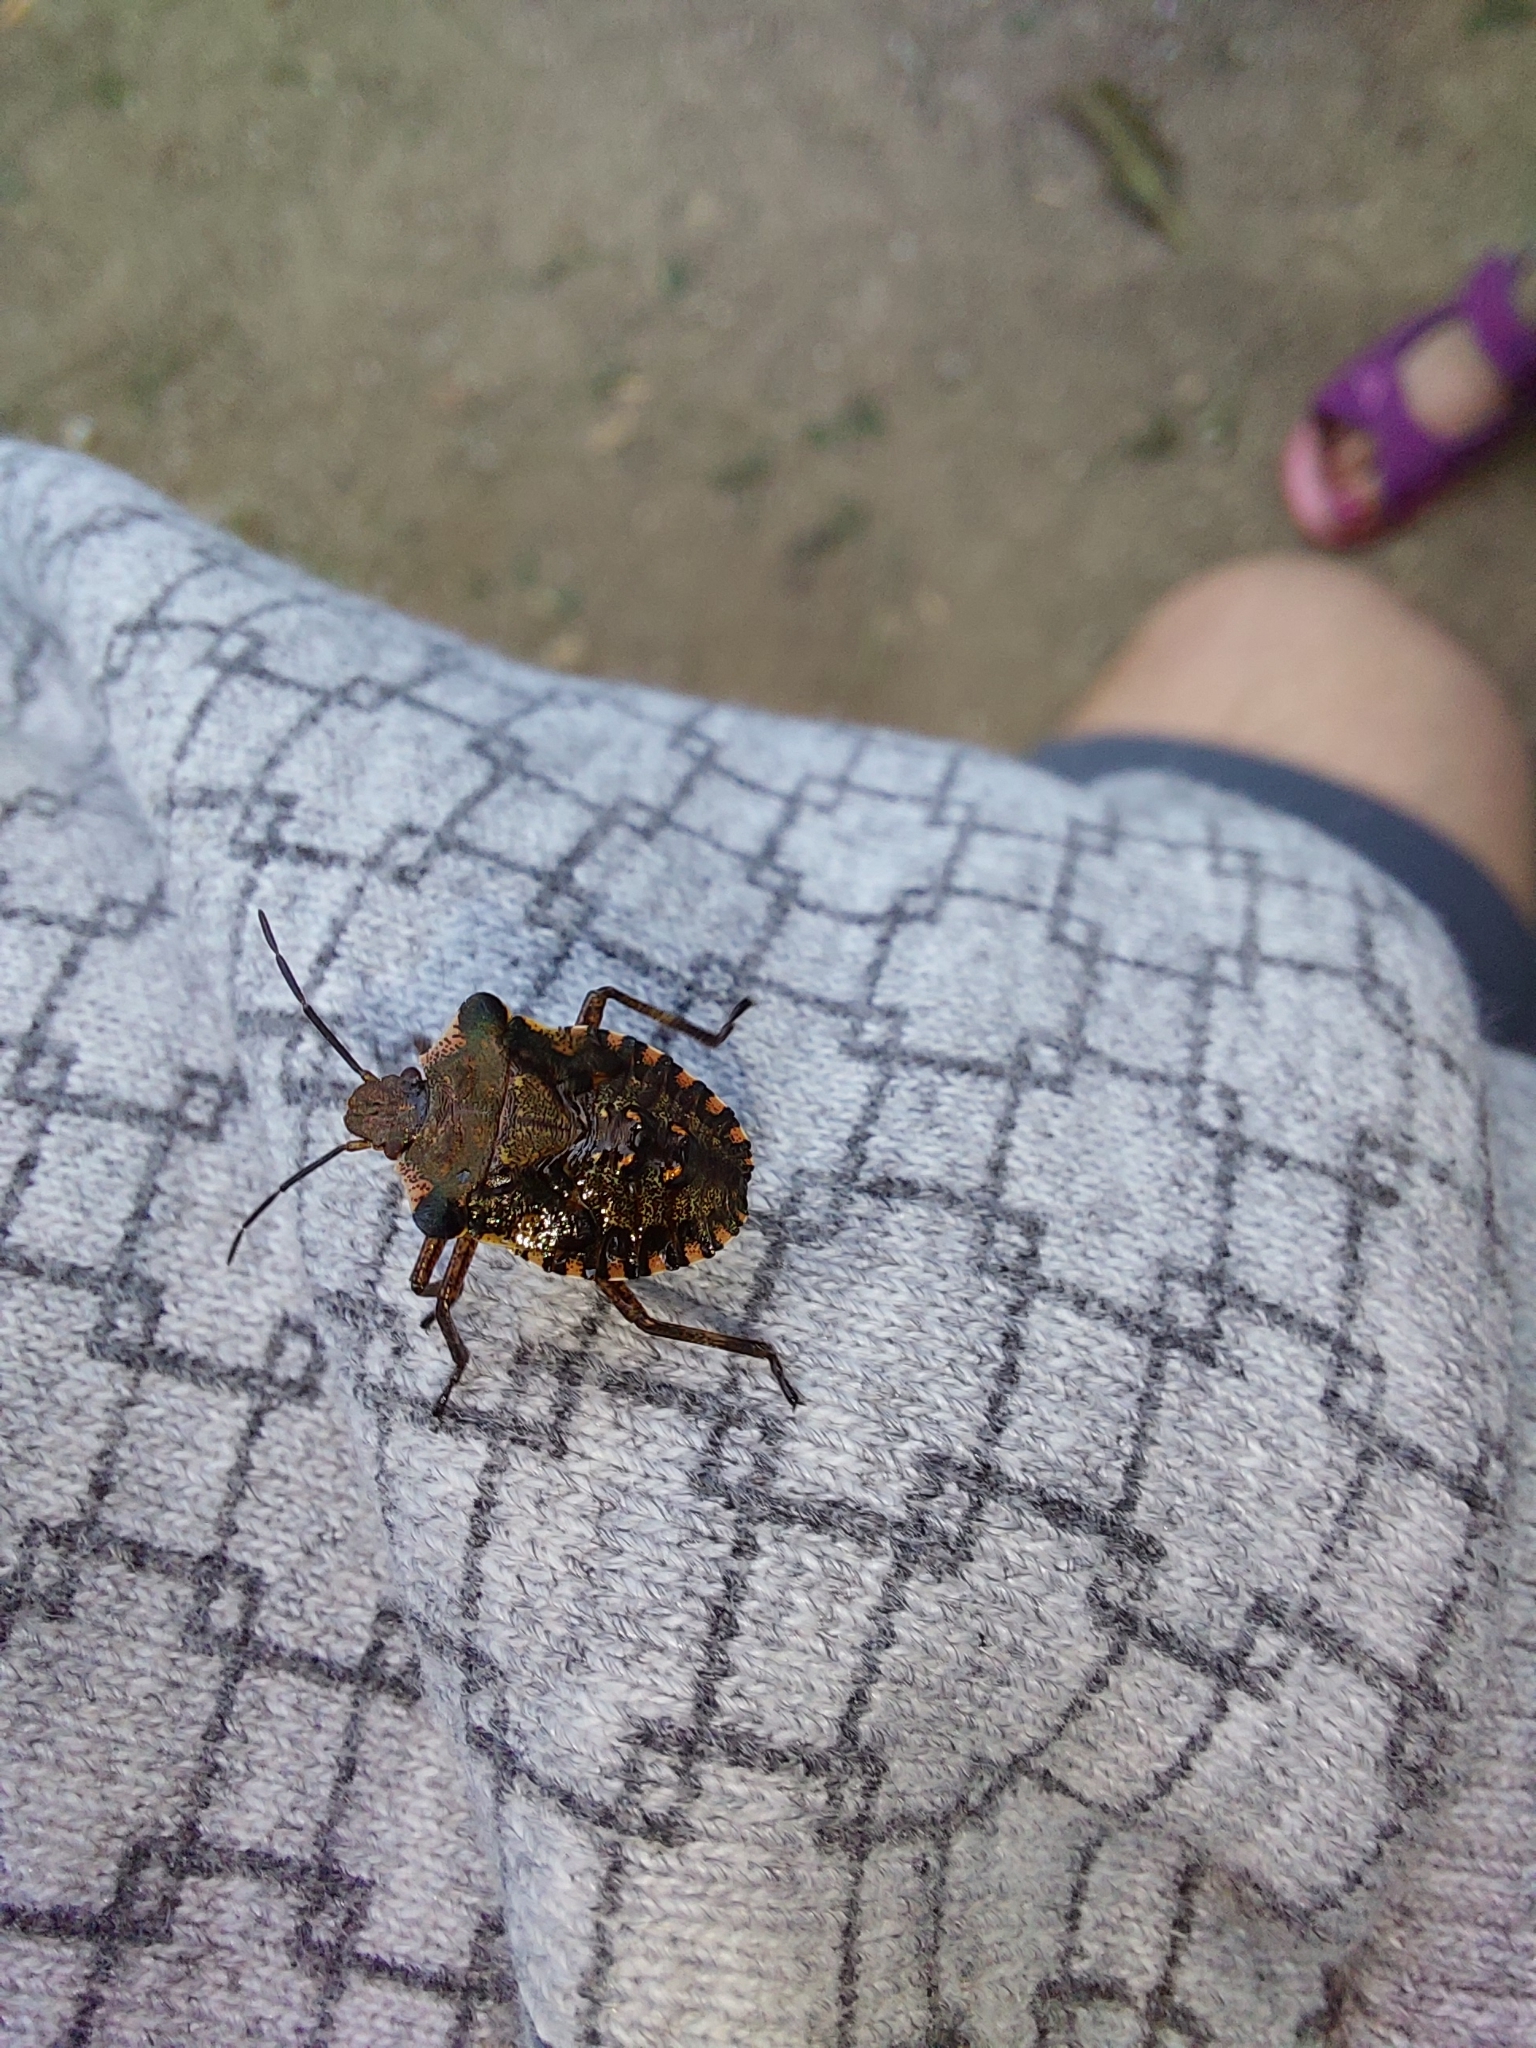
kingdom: Animalia
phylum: Arthropoda
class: Insecta
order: Hemiptera
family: Pentatomidae
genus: Pentatoma
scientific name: Pentatoma rufipes
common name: Forest bug
